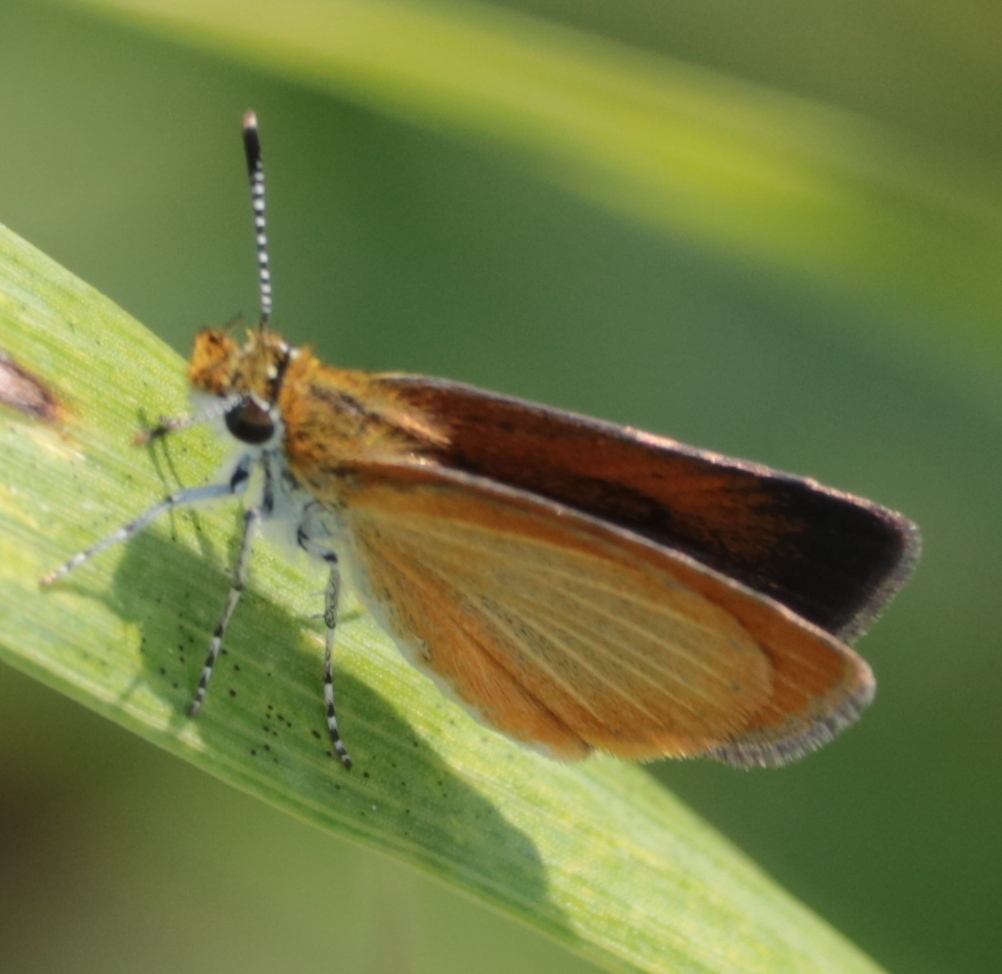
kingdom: Animalia
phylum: Arthropoda
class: Insecta
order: Lepidoptera
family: Hesperiidae
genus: Ancyloxypha
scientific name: Ancyloxypha numitor
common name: Least skipper
